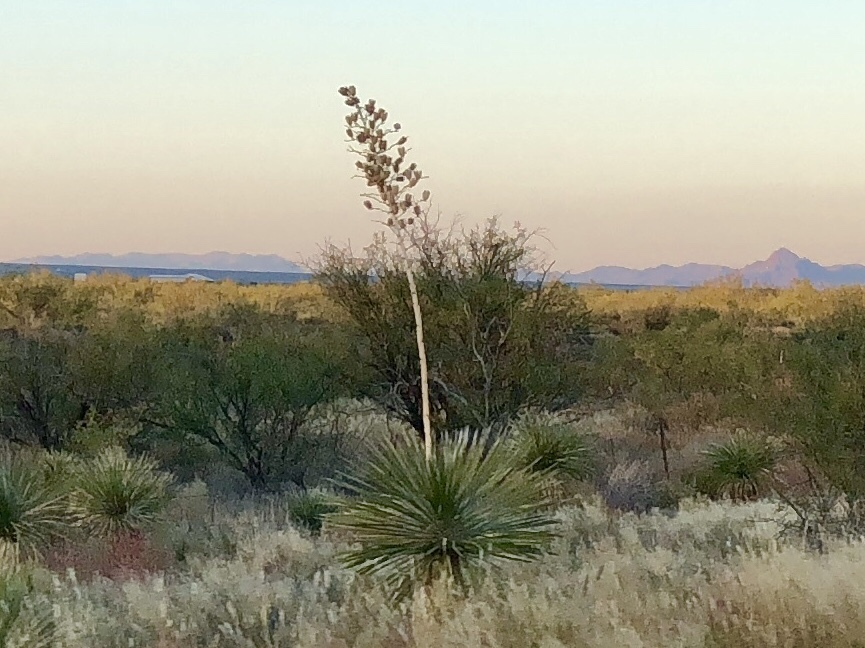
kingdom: Plantae
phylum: Tracheophyta
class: Liliopsida
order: Asparagales
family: Asparagaceae
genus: Yucca
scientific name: Yucca elata
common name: Palmella
